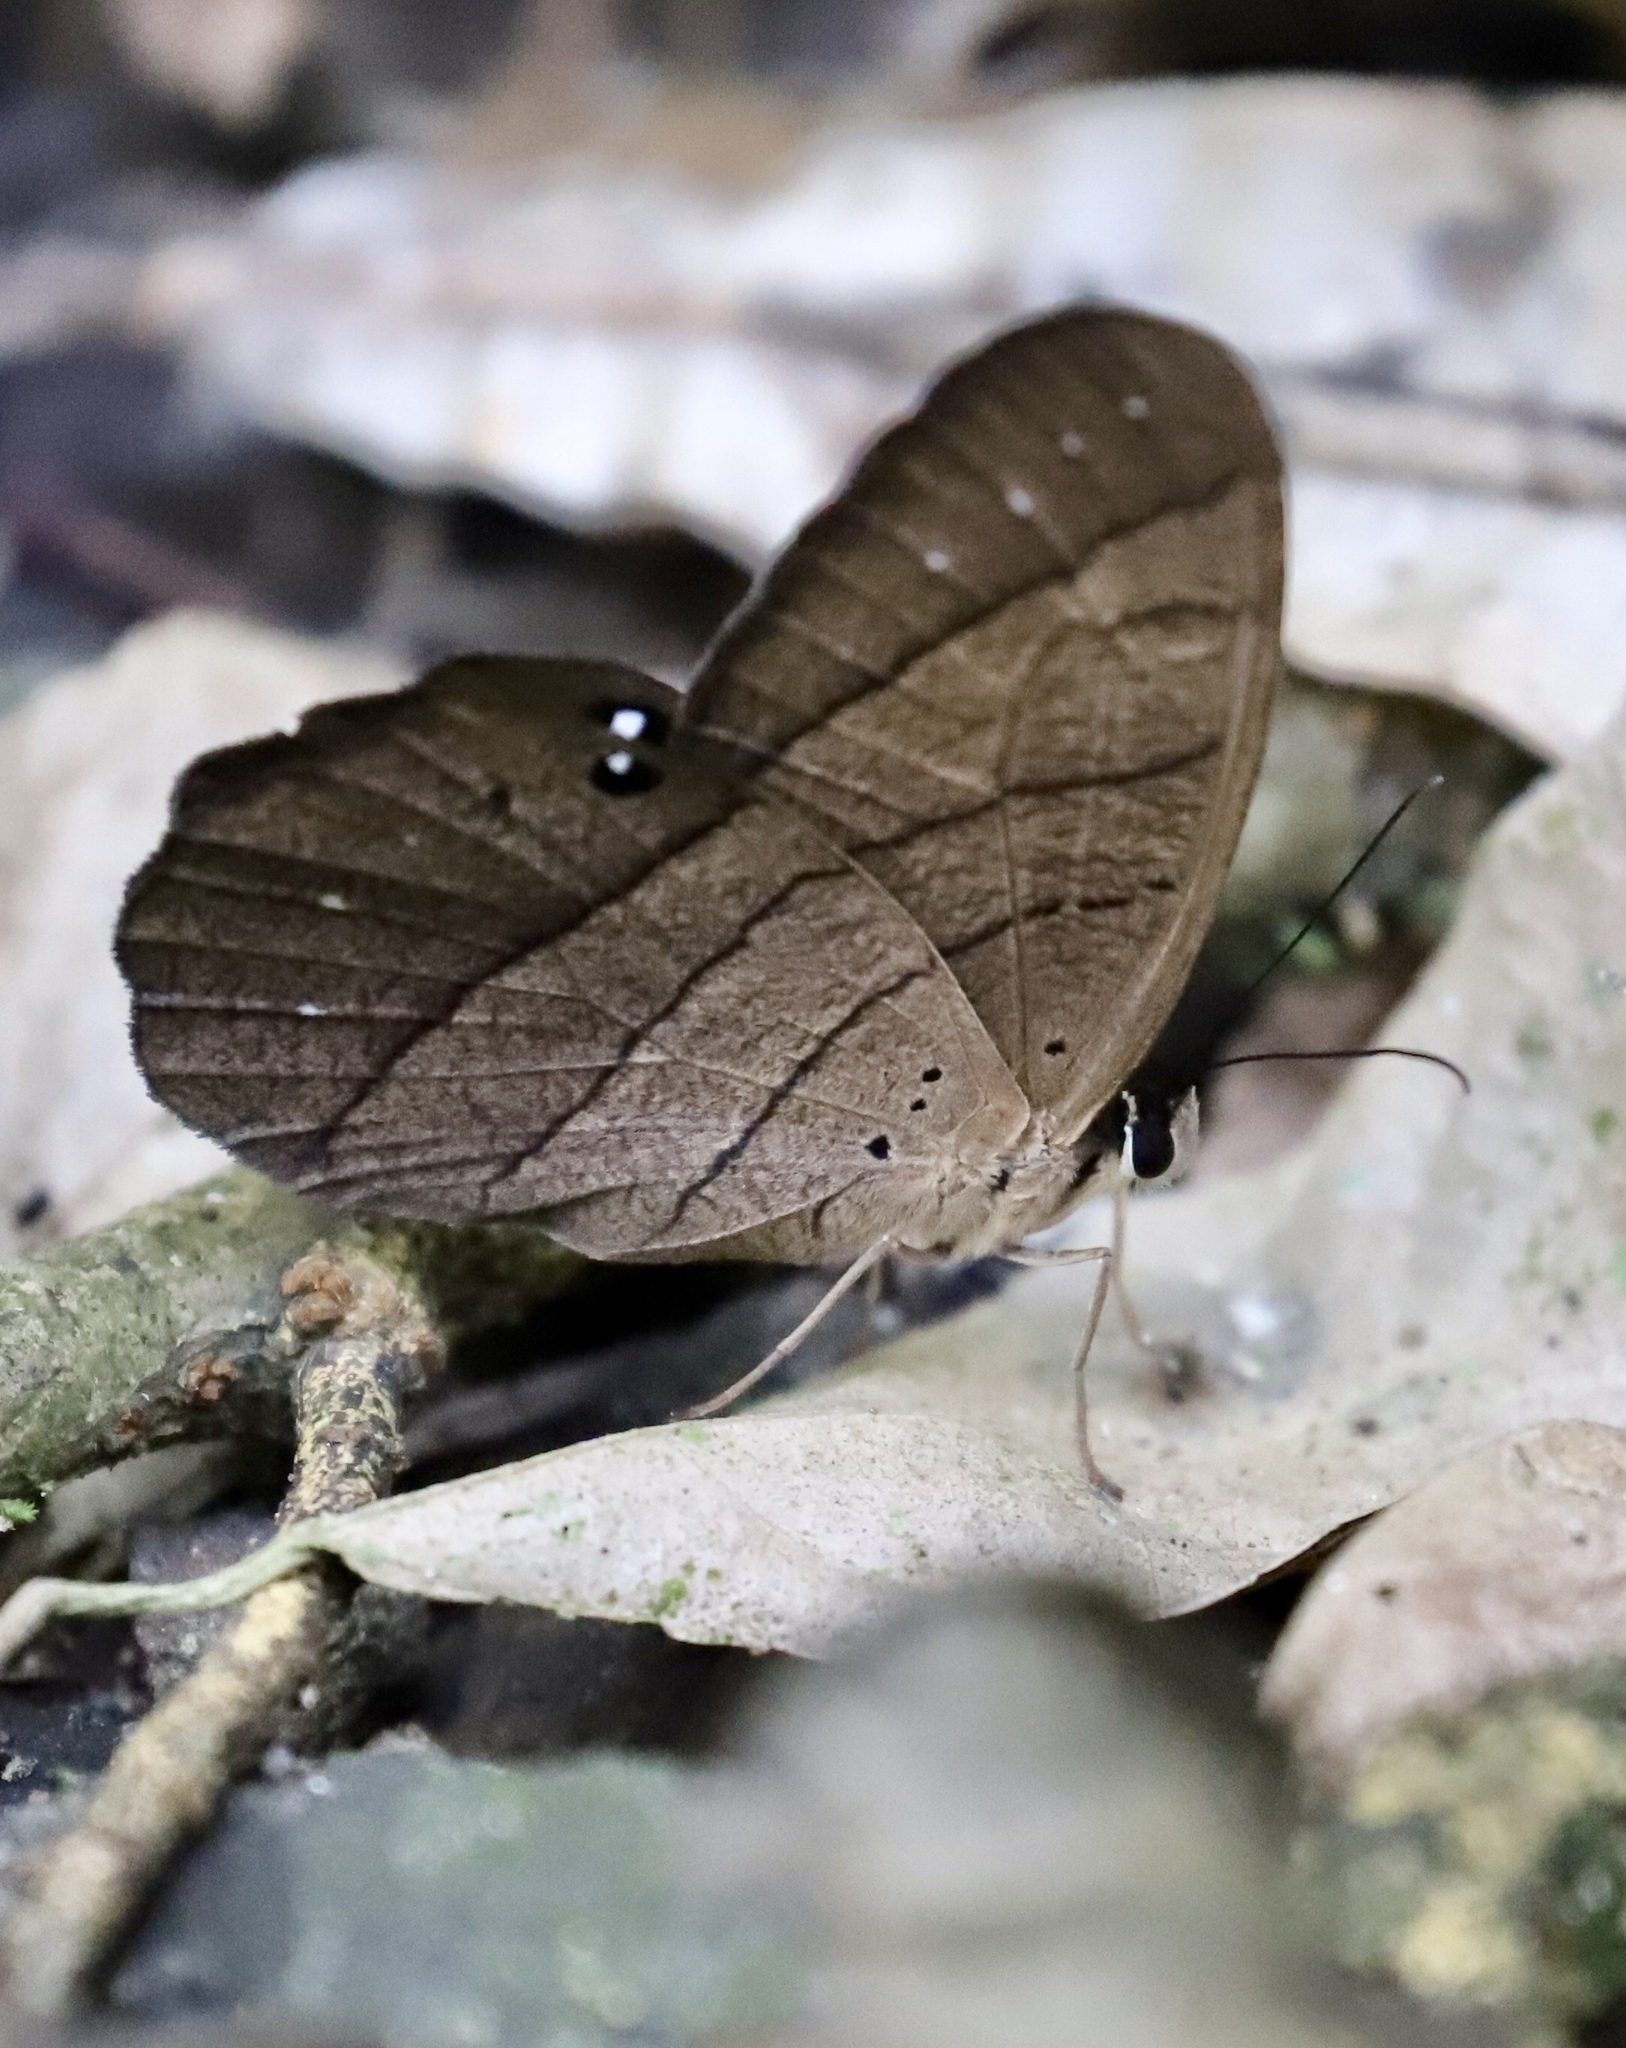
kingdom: Animalia
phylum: Arthropoda
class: Insecta
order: Lepidoptera
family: Nymphalidae
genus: Pierella
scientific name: Pierella lena
